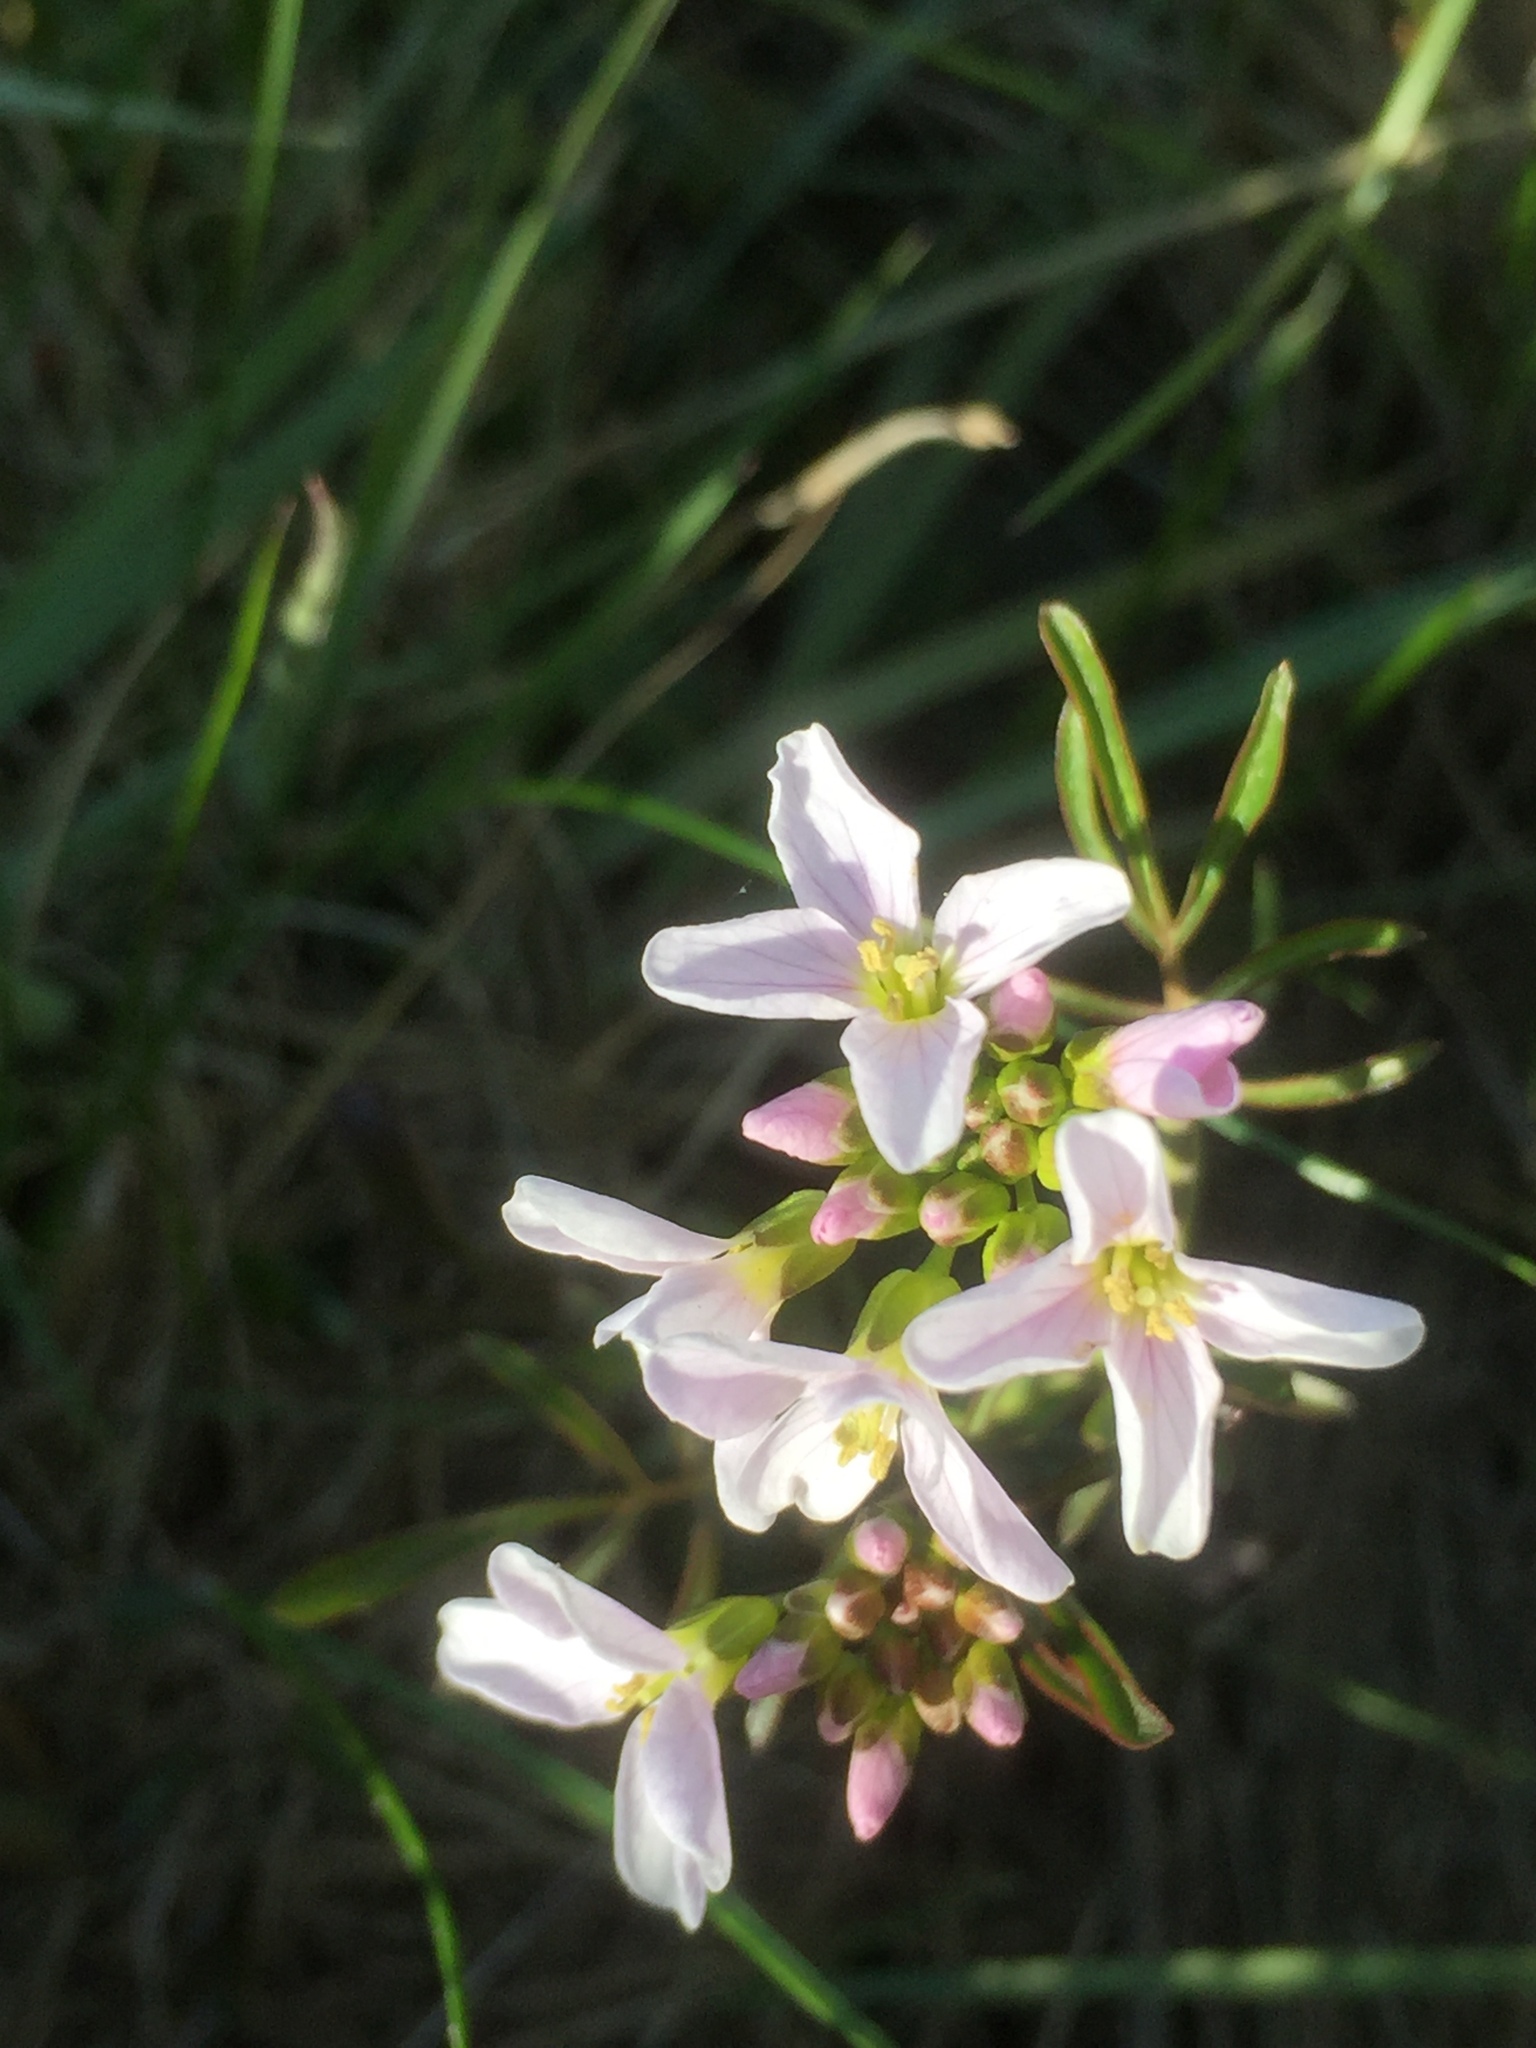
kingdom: Plantae
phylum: Tracheophyta
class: Magnoliopsida
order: Brassicales
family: Brassicaceae
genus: Cardamine
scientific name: Cardamine pratensis
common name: Cuckoo flower
